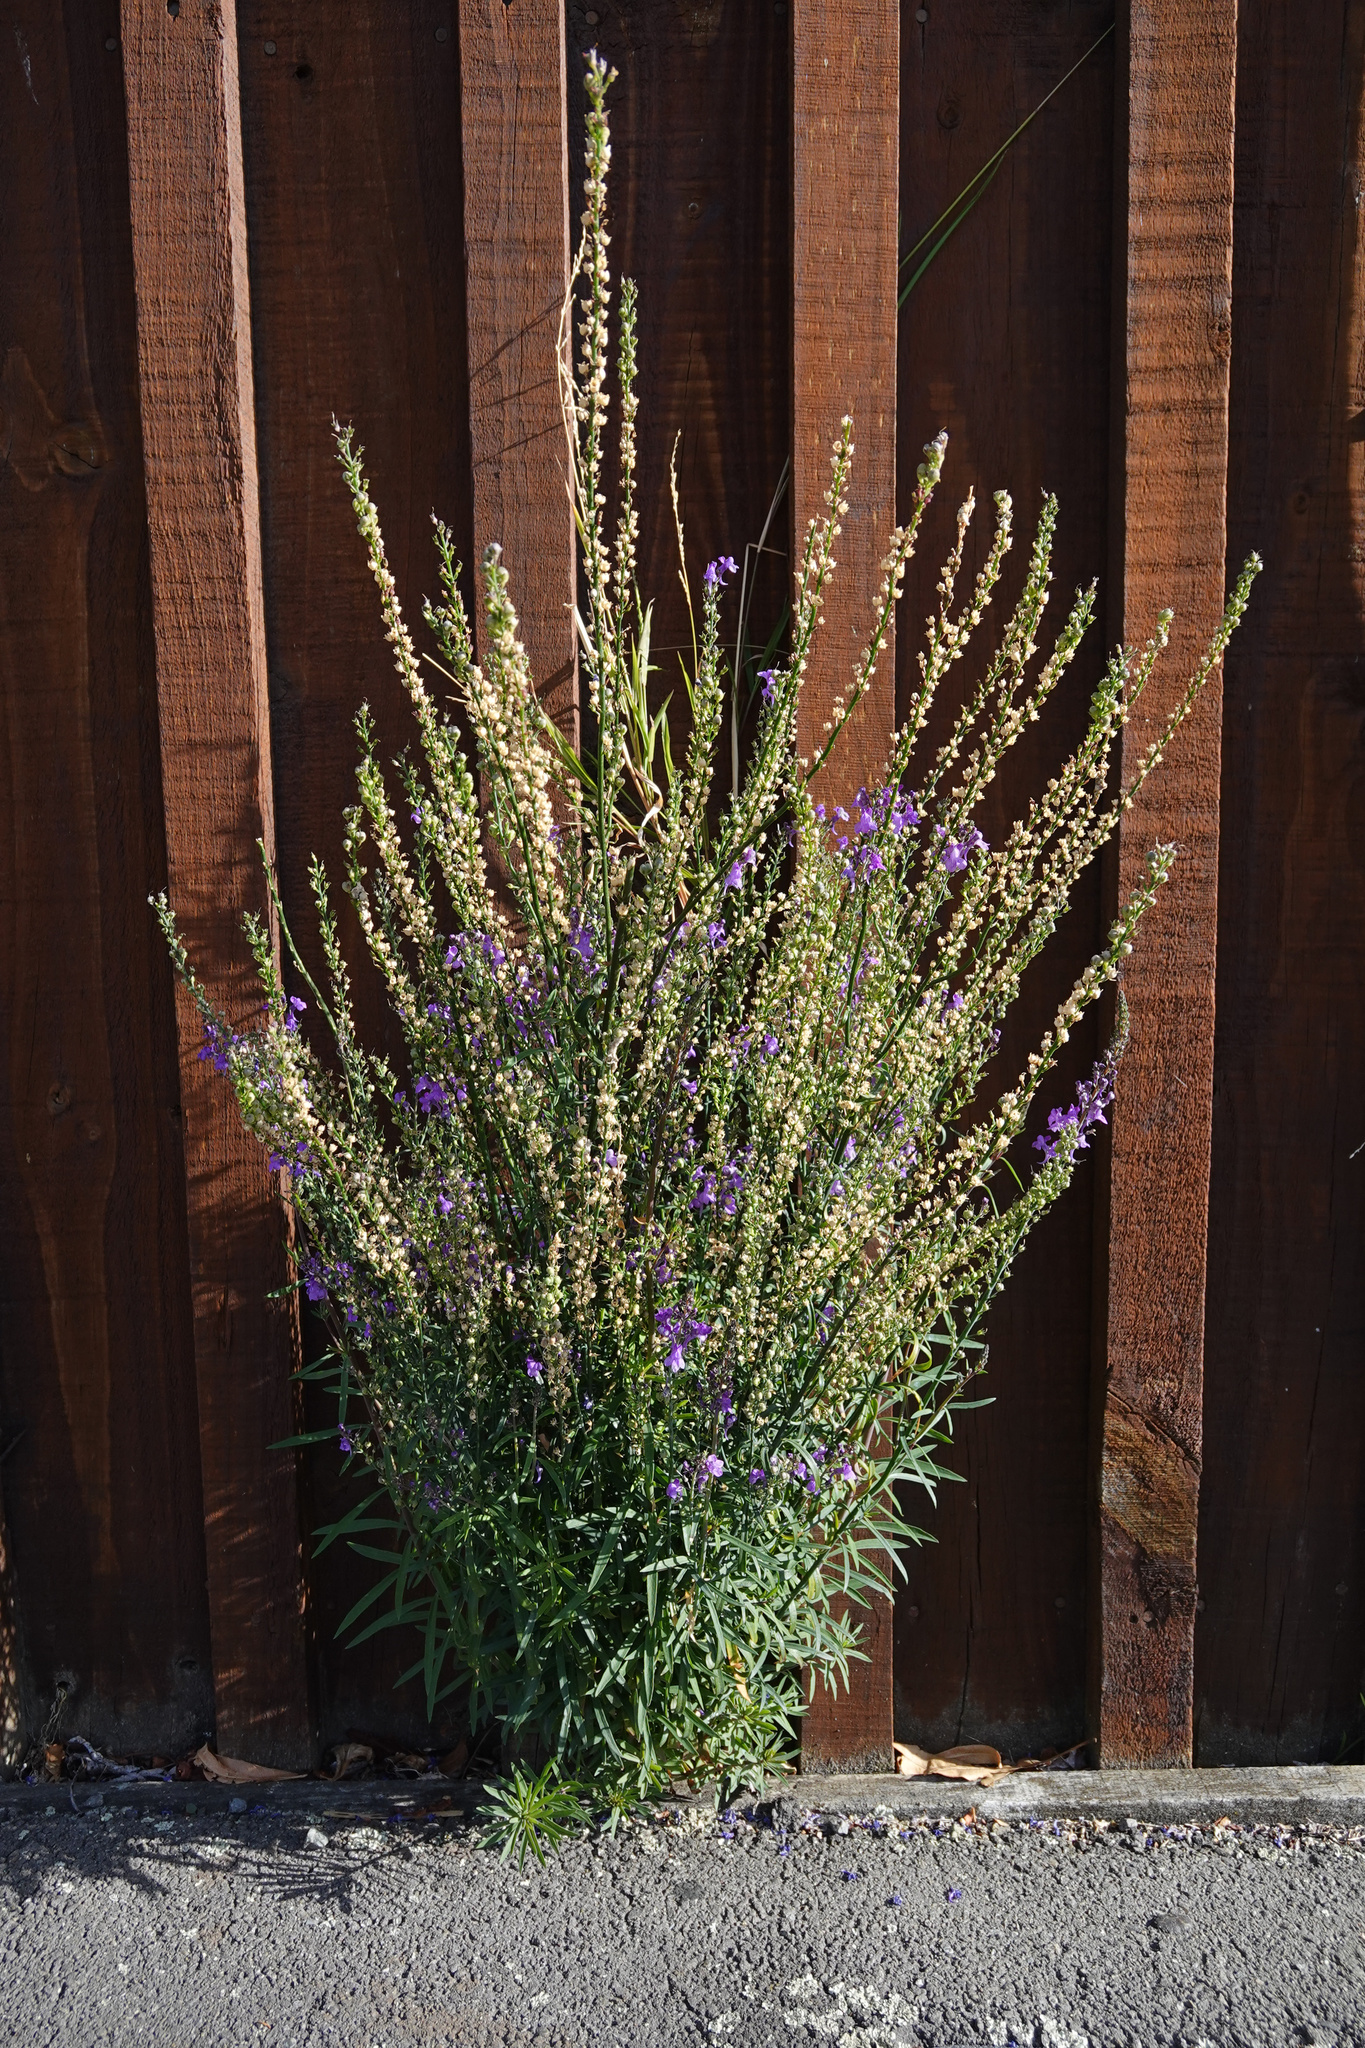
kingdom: Plantae
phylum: Tracheophyta
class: Magnoliopsida
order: Lamiales
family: Plantaginaceae
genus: Linaria
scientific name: Linaria purpurea
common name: Purple toadflax
